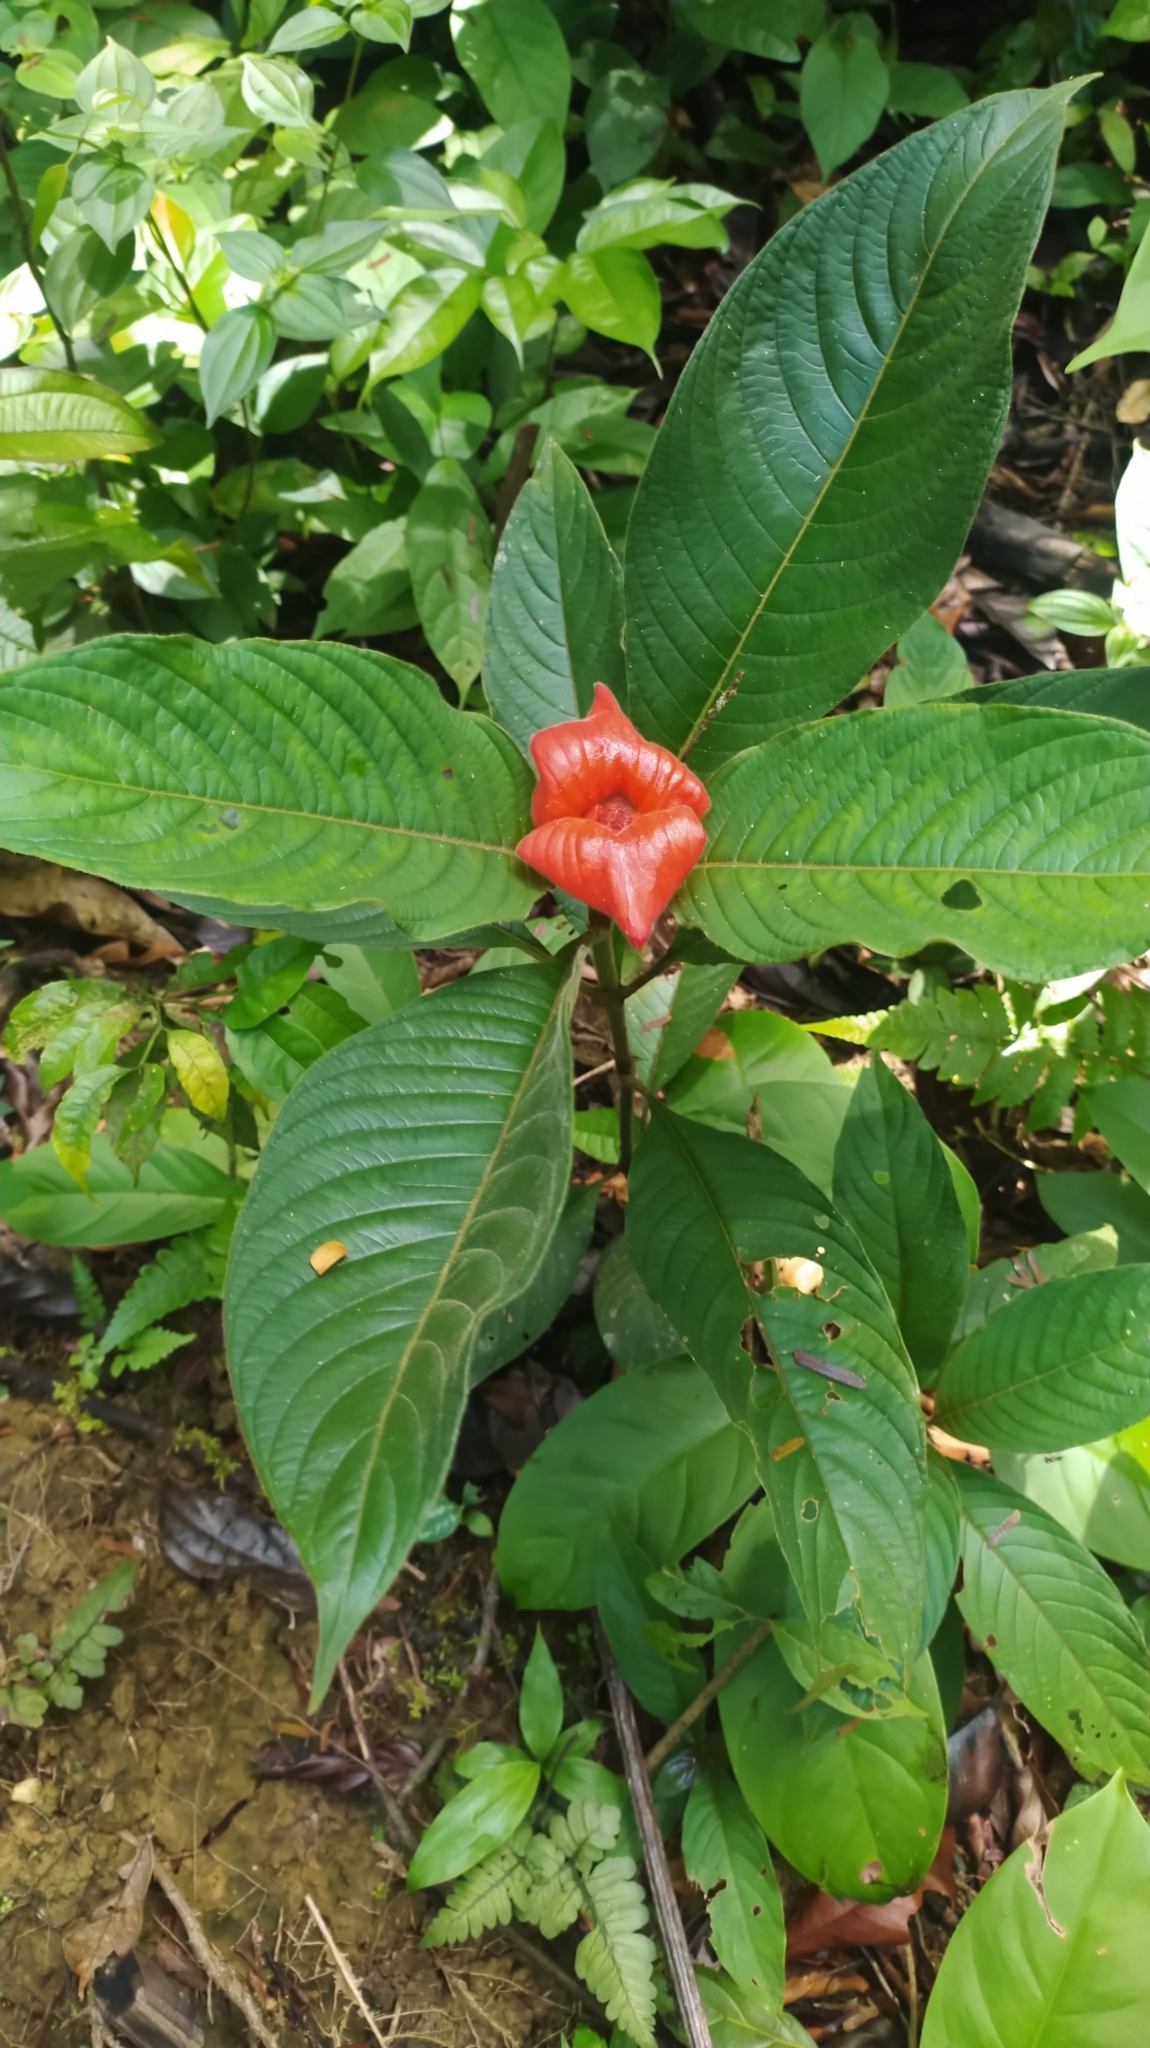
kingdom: Plantae
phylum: Tracheophyta
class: Magnoliopsida
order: Gentianales
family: Rubiaceae
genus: Palicourea
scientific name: Palicourea tomentosa
